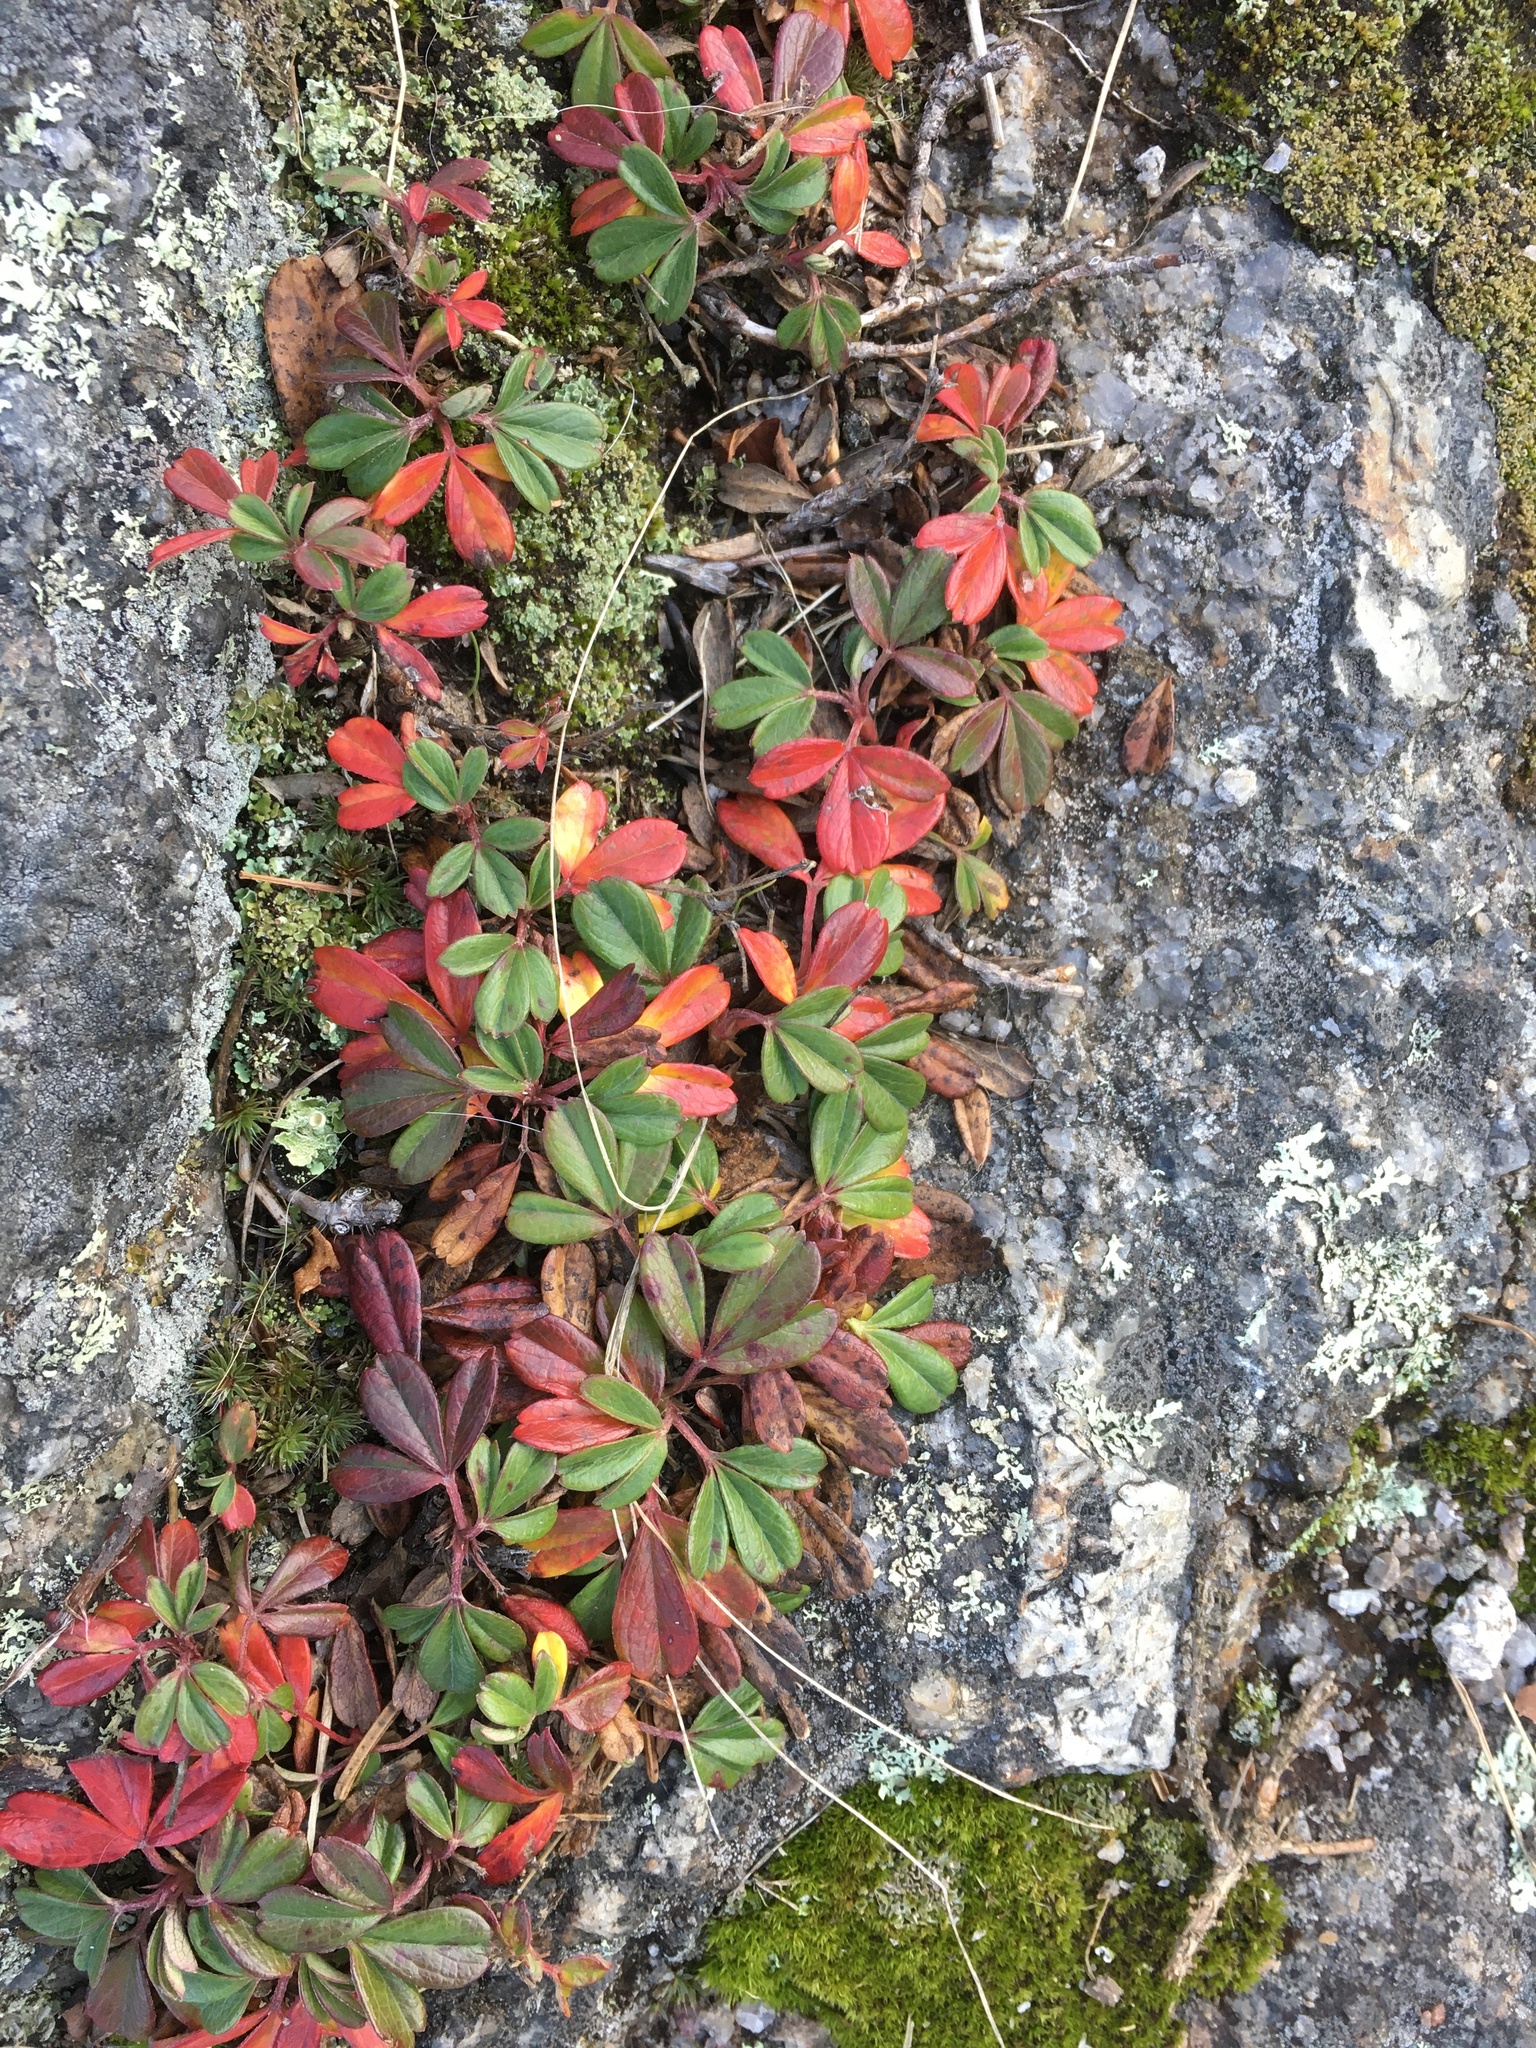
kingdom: Plantae
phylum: Tracheophyta
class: Magnoliopsida
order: Rosales
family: Rosaceae
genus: Sibbaldia
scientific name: Sibbaldia tridentata
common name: Three-toothed cinquefoil
